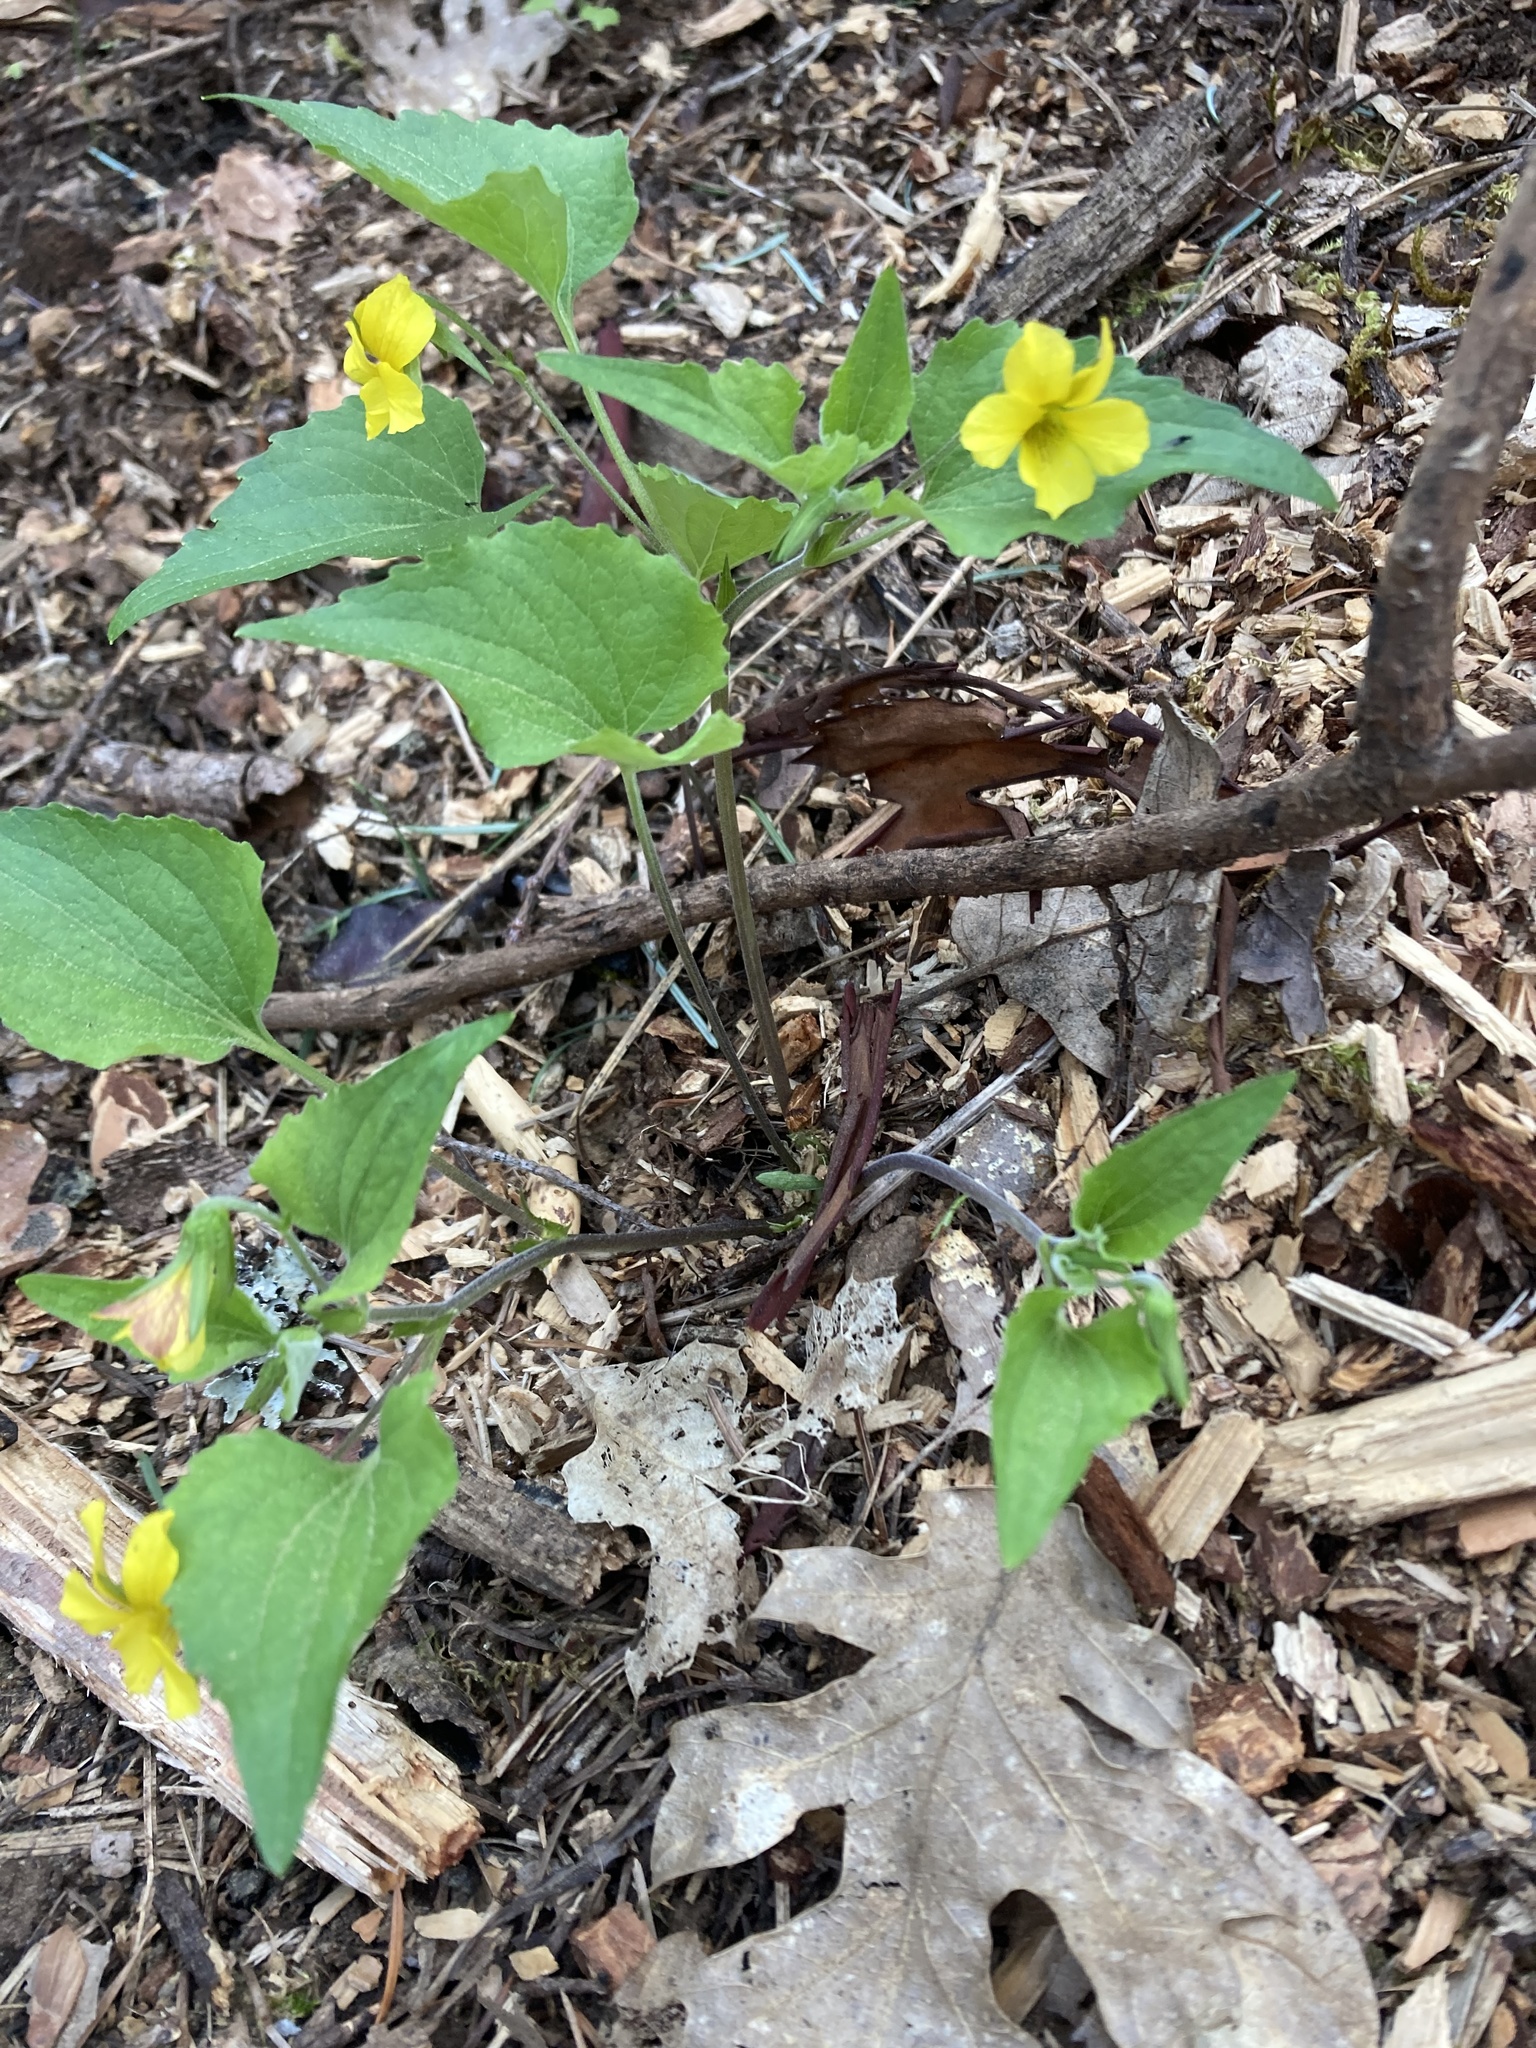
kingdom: Plantae
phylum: Tracheophyta
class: Magnoliopsida
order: Malpighiales
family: Violaceae
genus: Viola
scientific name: Viola lobata
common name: Pine violet
